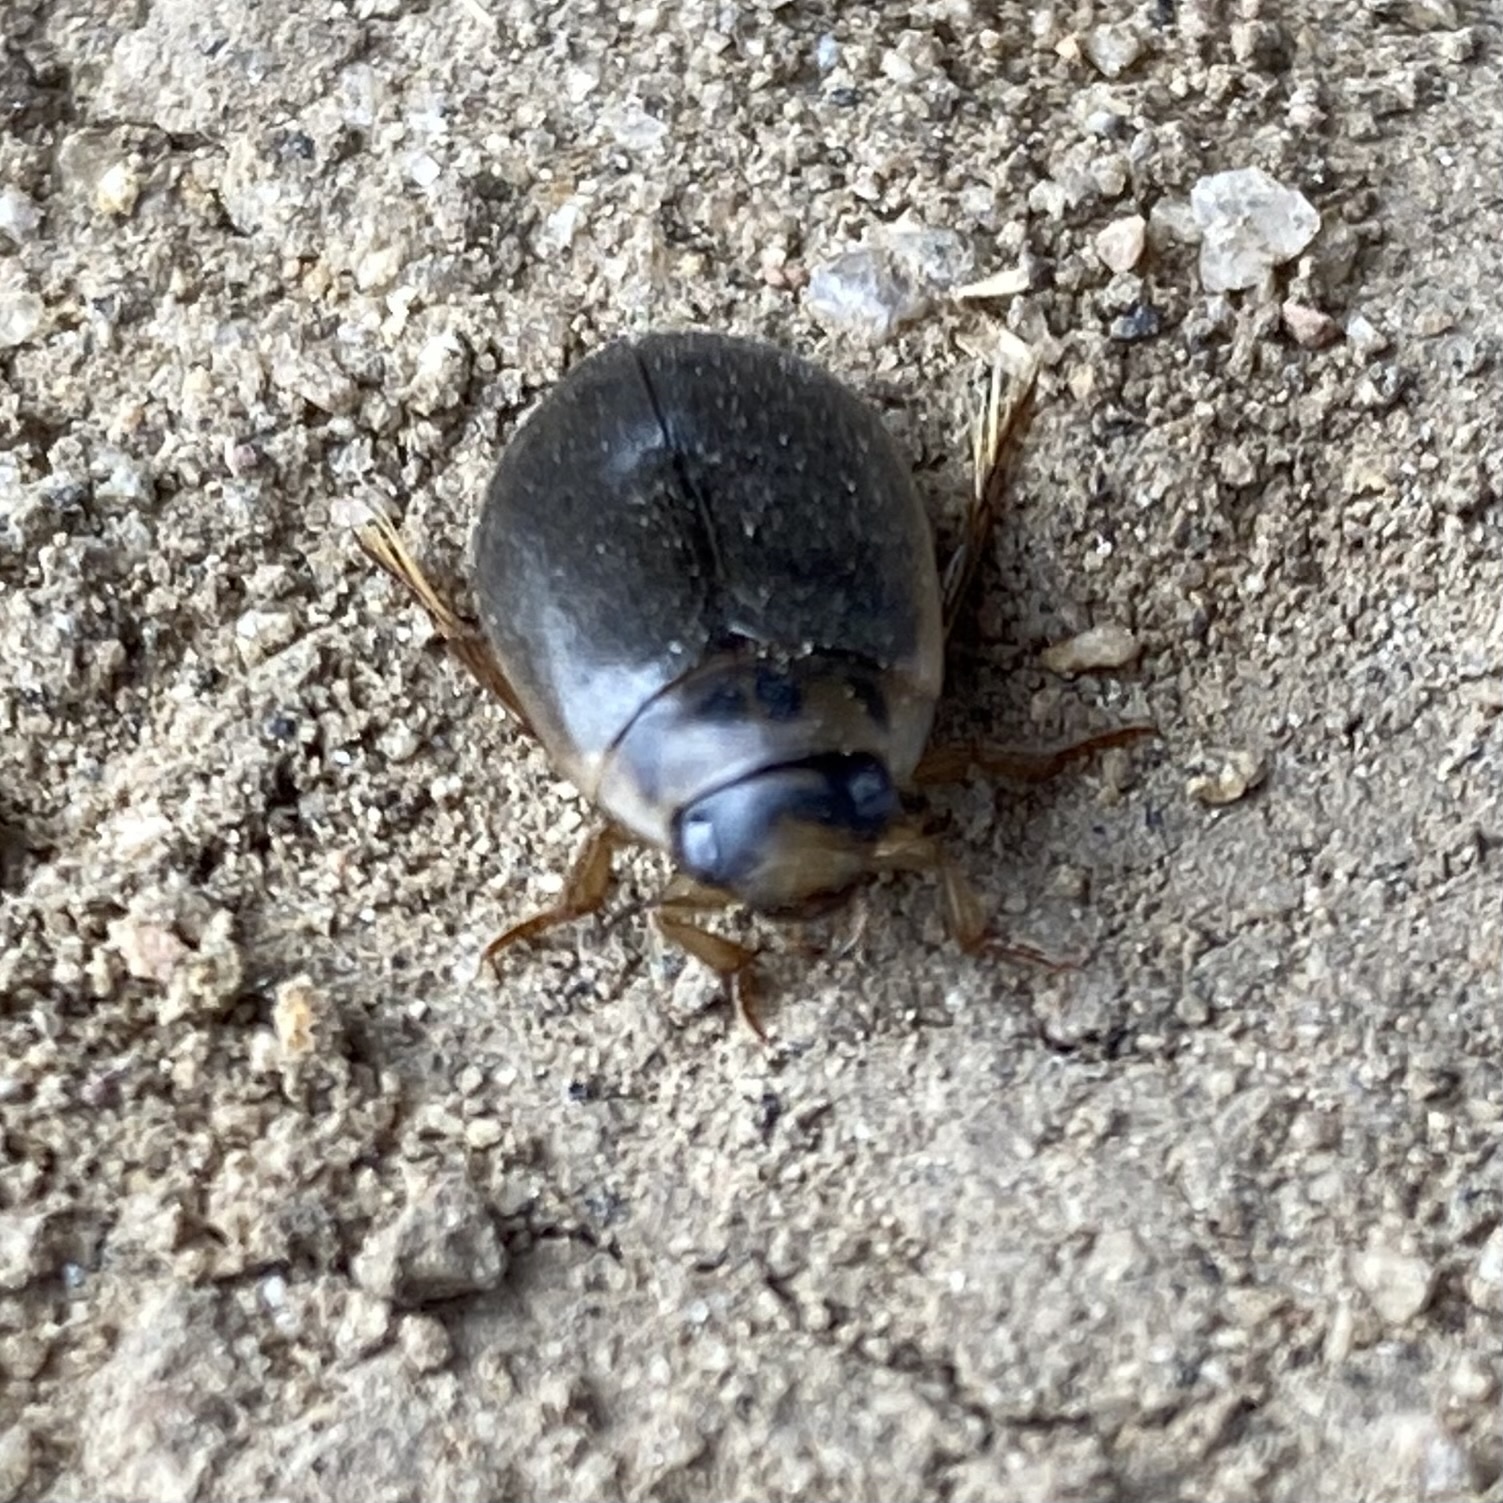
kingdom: Animalia
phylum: Arthropoda
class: Insecta
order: Coleoptera
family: Dytiscidae
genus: Rhantus
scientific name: Rhantus
